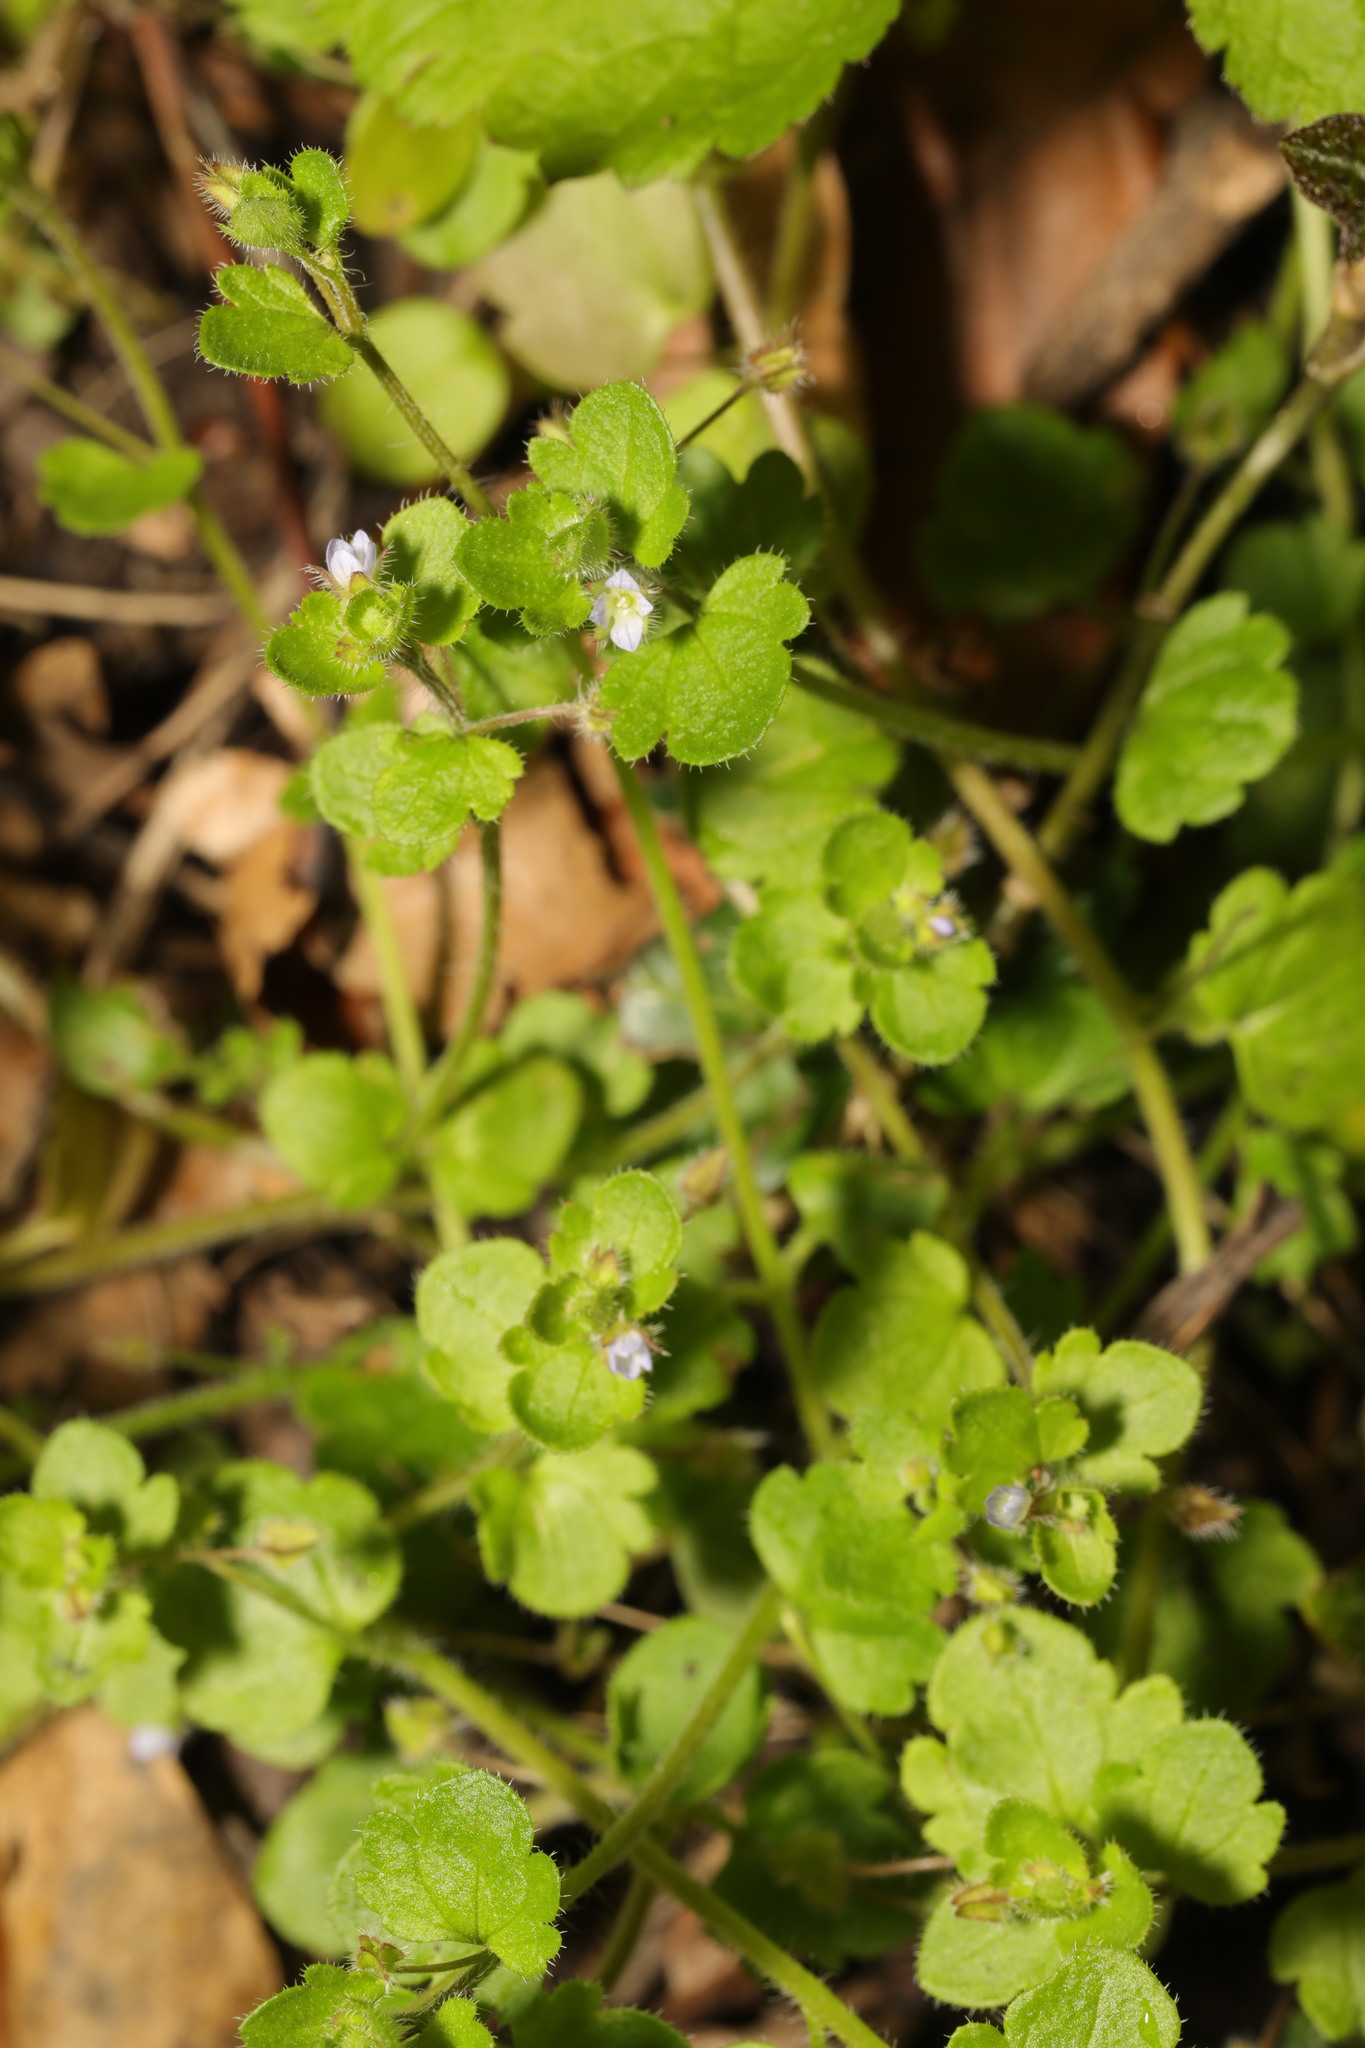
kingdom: Plantae
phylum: Tracheophyta
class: Magnoliopsida
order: Lamiales
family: Plantaginaceae
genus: Veronica
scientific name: Veronica sublobata
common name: False ivy-leaved speedwell
